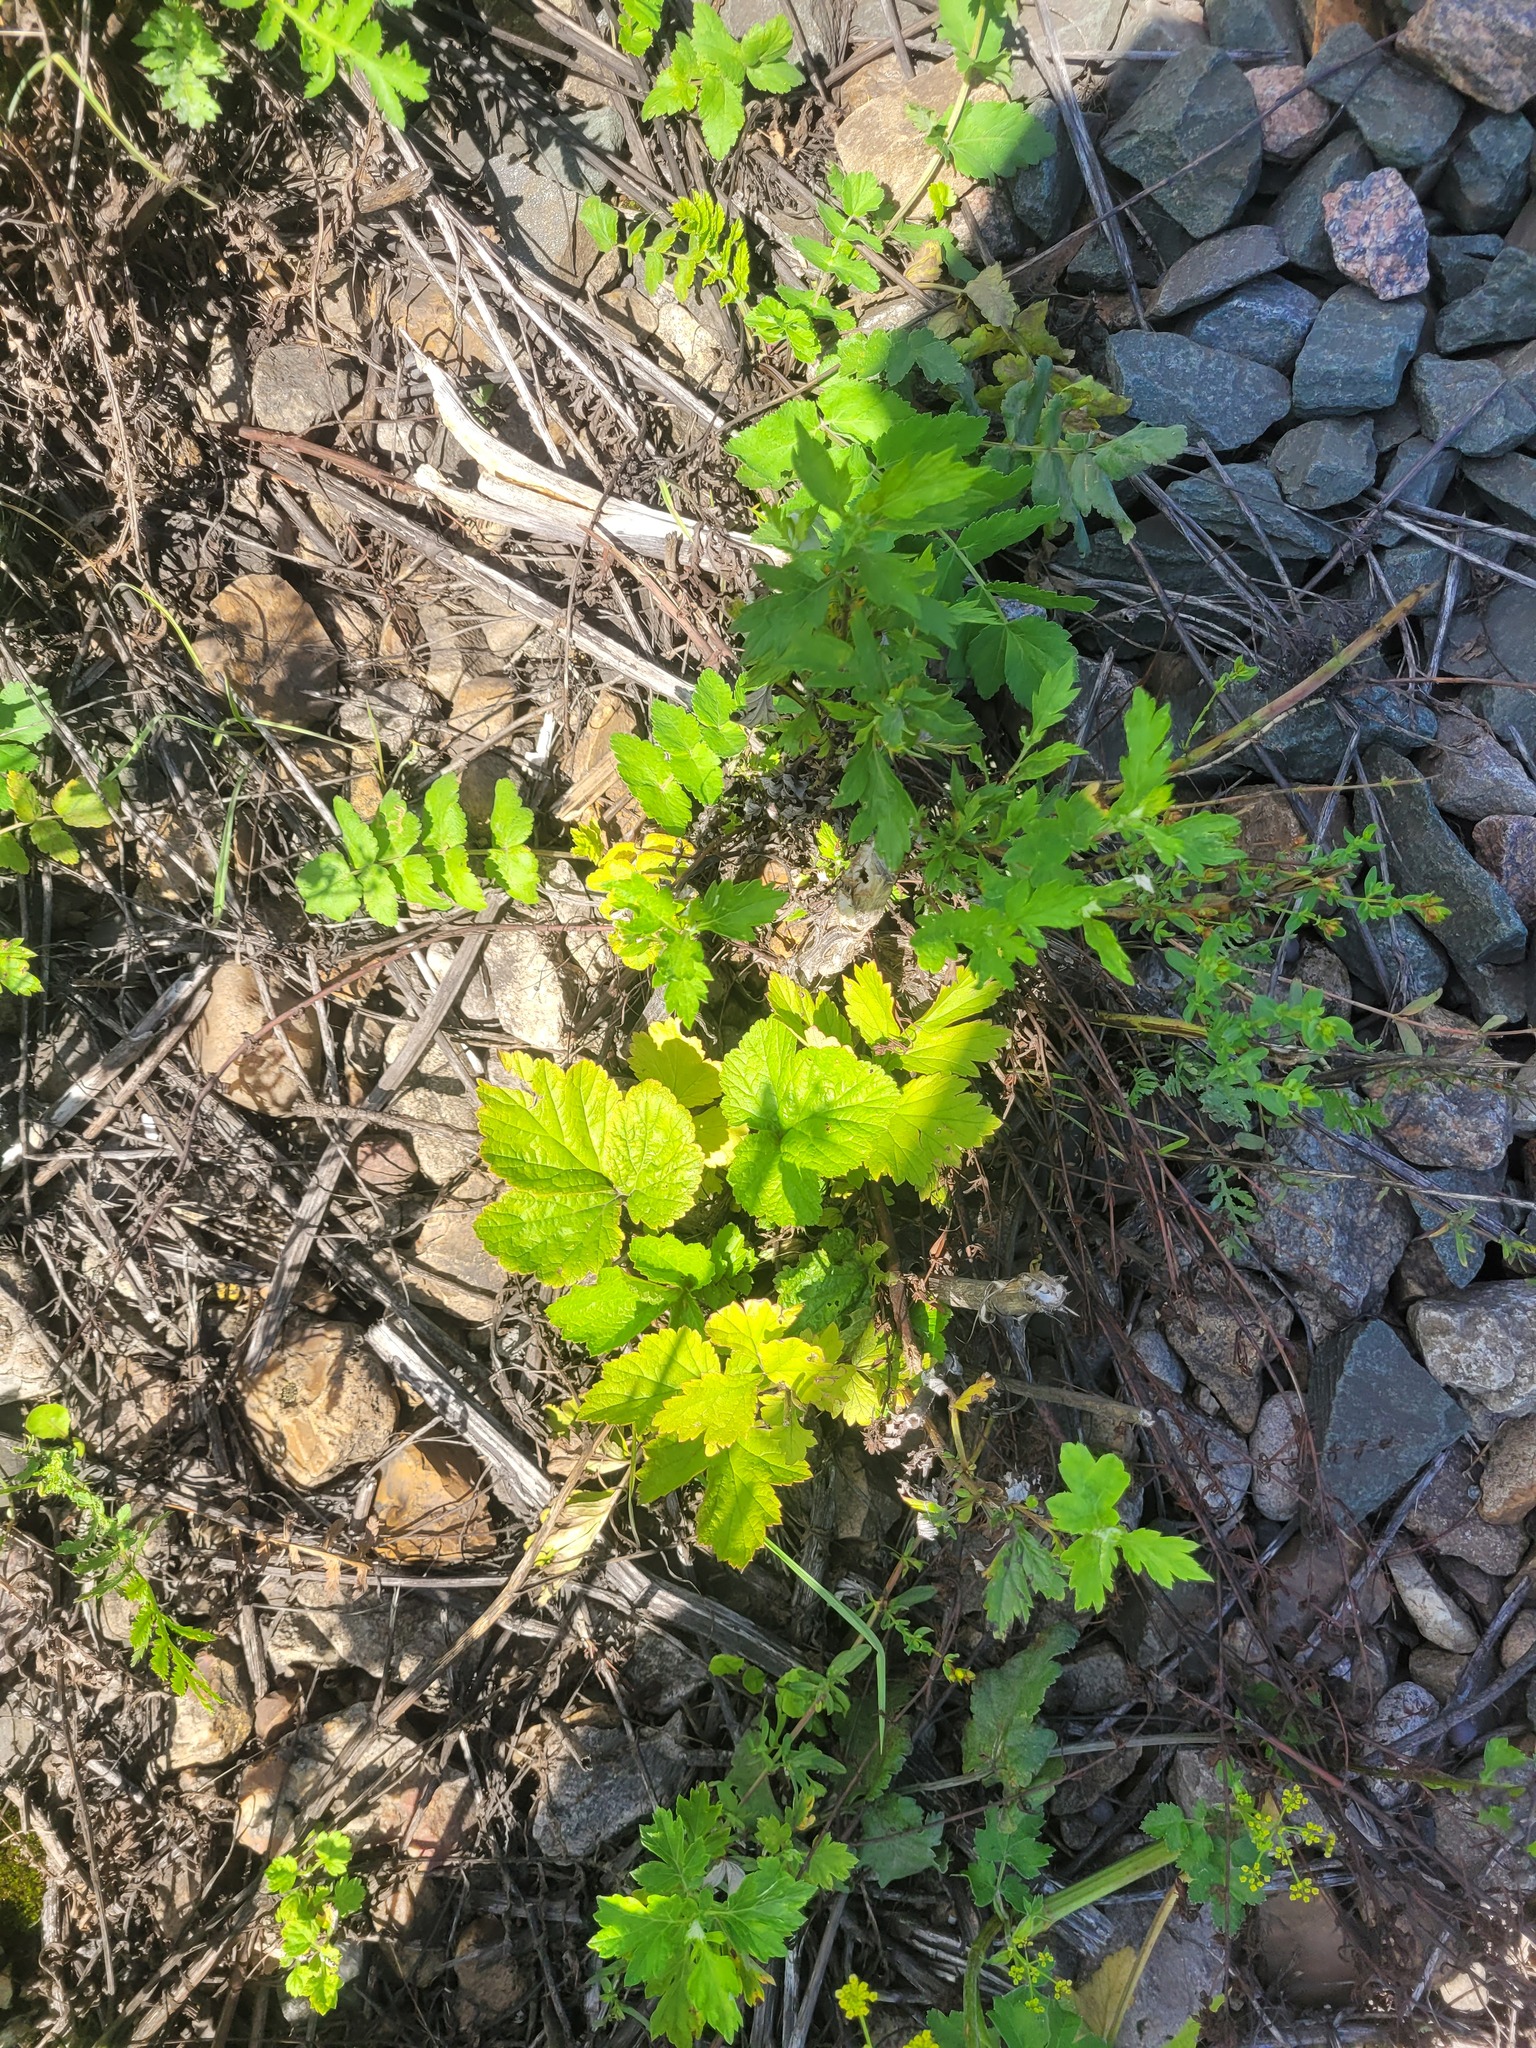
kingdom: Plantae
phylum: Tracheophyta
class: Magnoliopsida
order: Rosales
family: Rosaceae
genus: Geum
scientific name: Geum urbanum
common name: Wood avens
